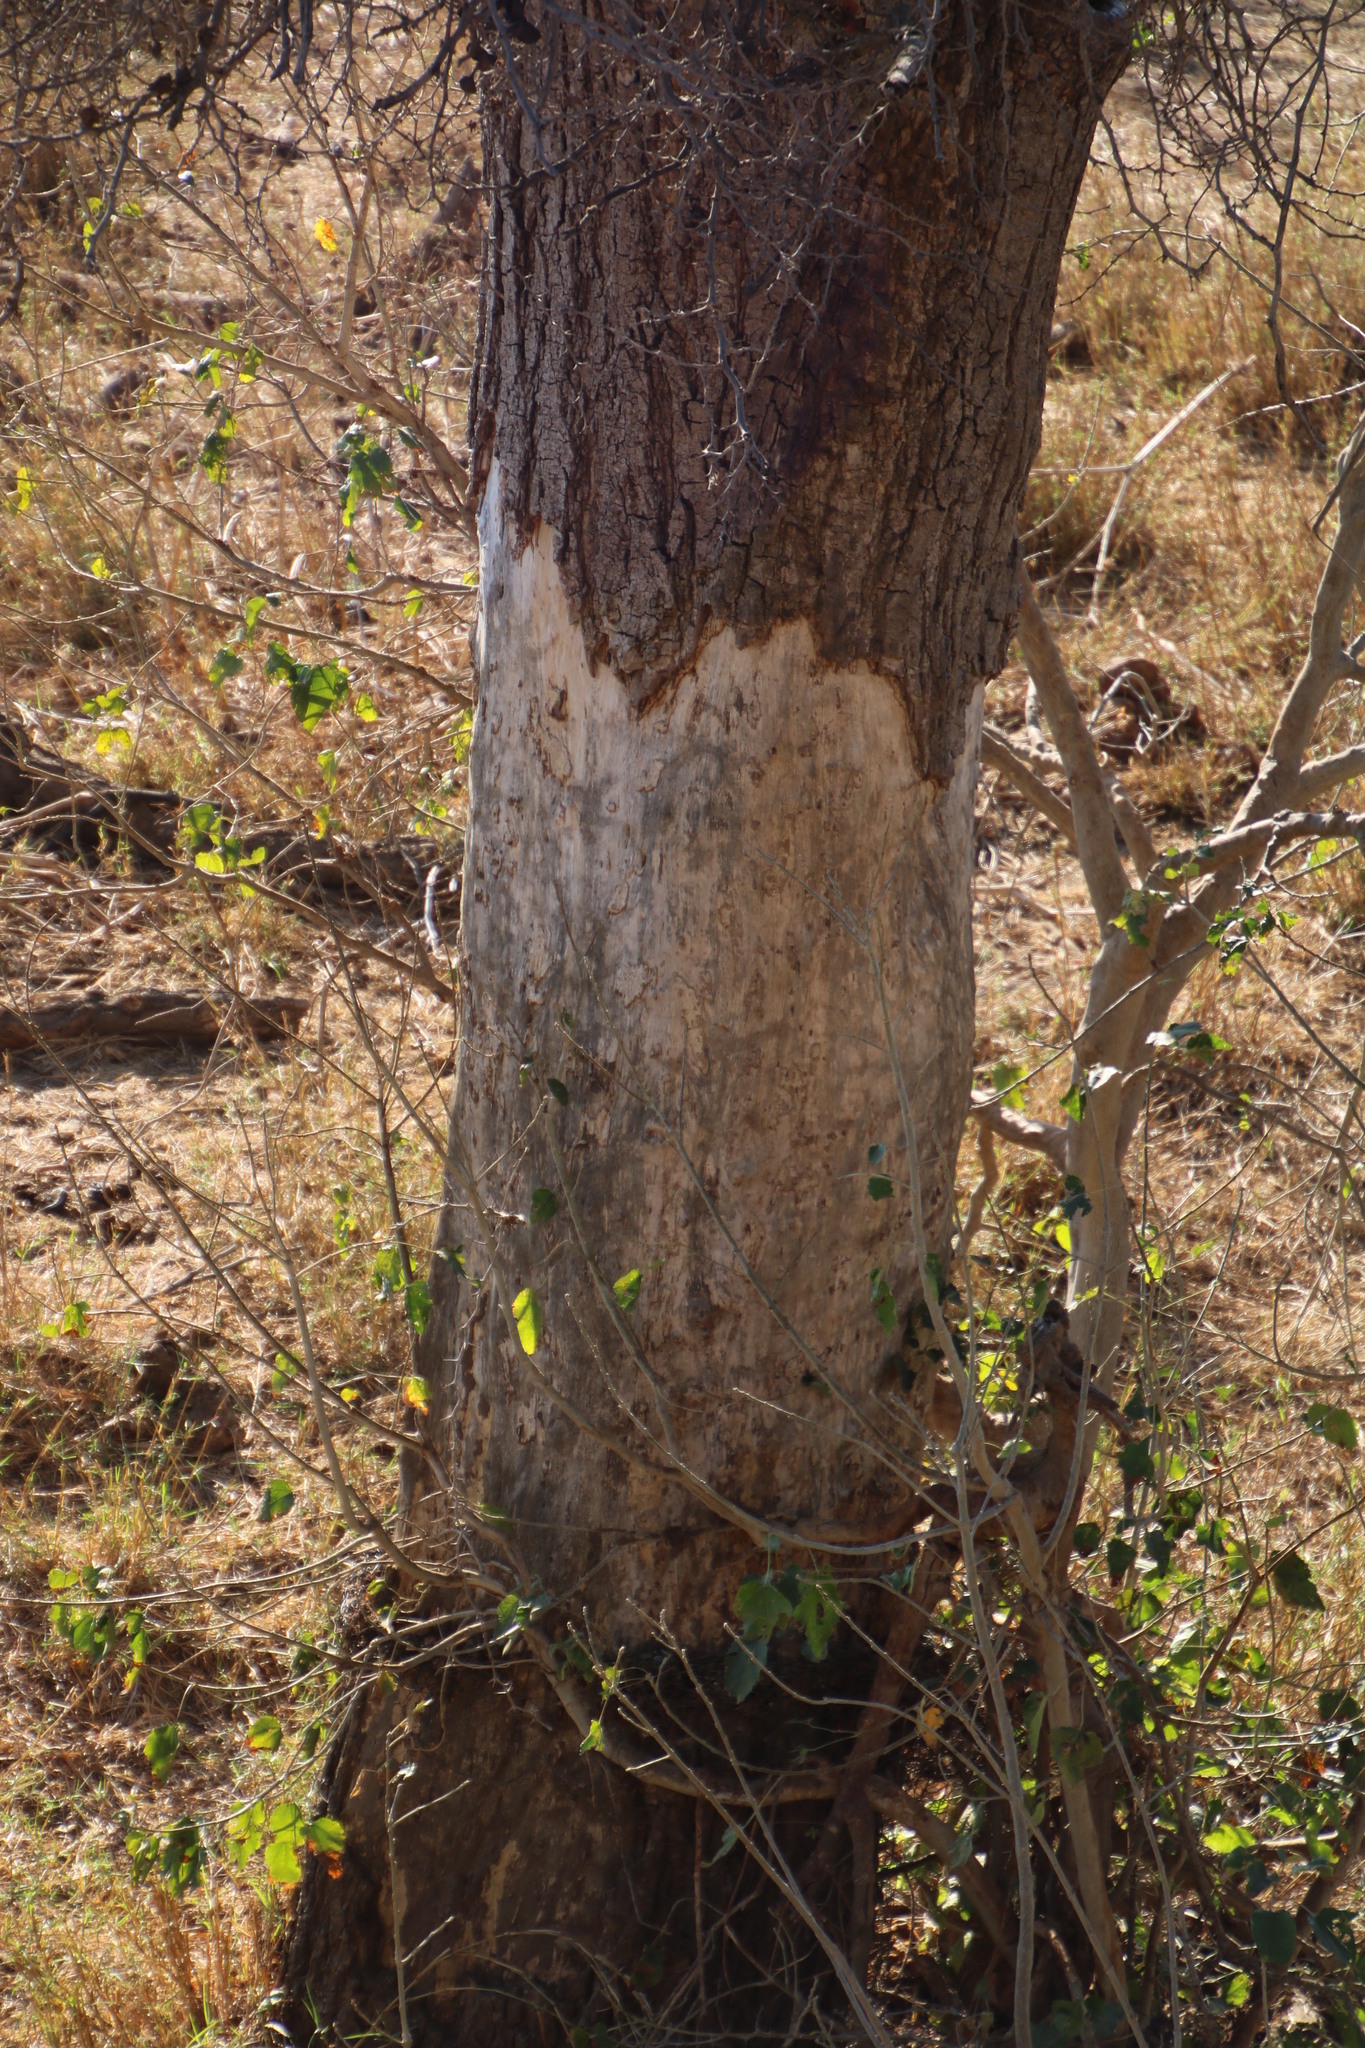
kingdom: Plantae
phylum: Tracheophyta
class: Magnoliopsida
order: Fabales
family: Fabaceae
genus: Faidherbia
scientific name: Faidherbia albida
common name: Anatree
